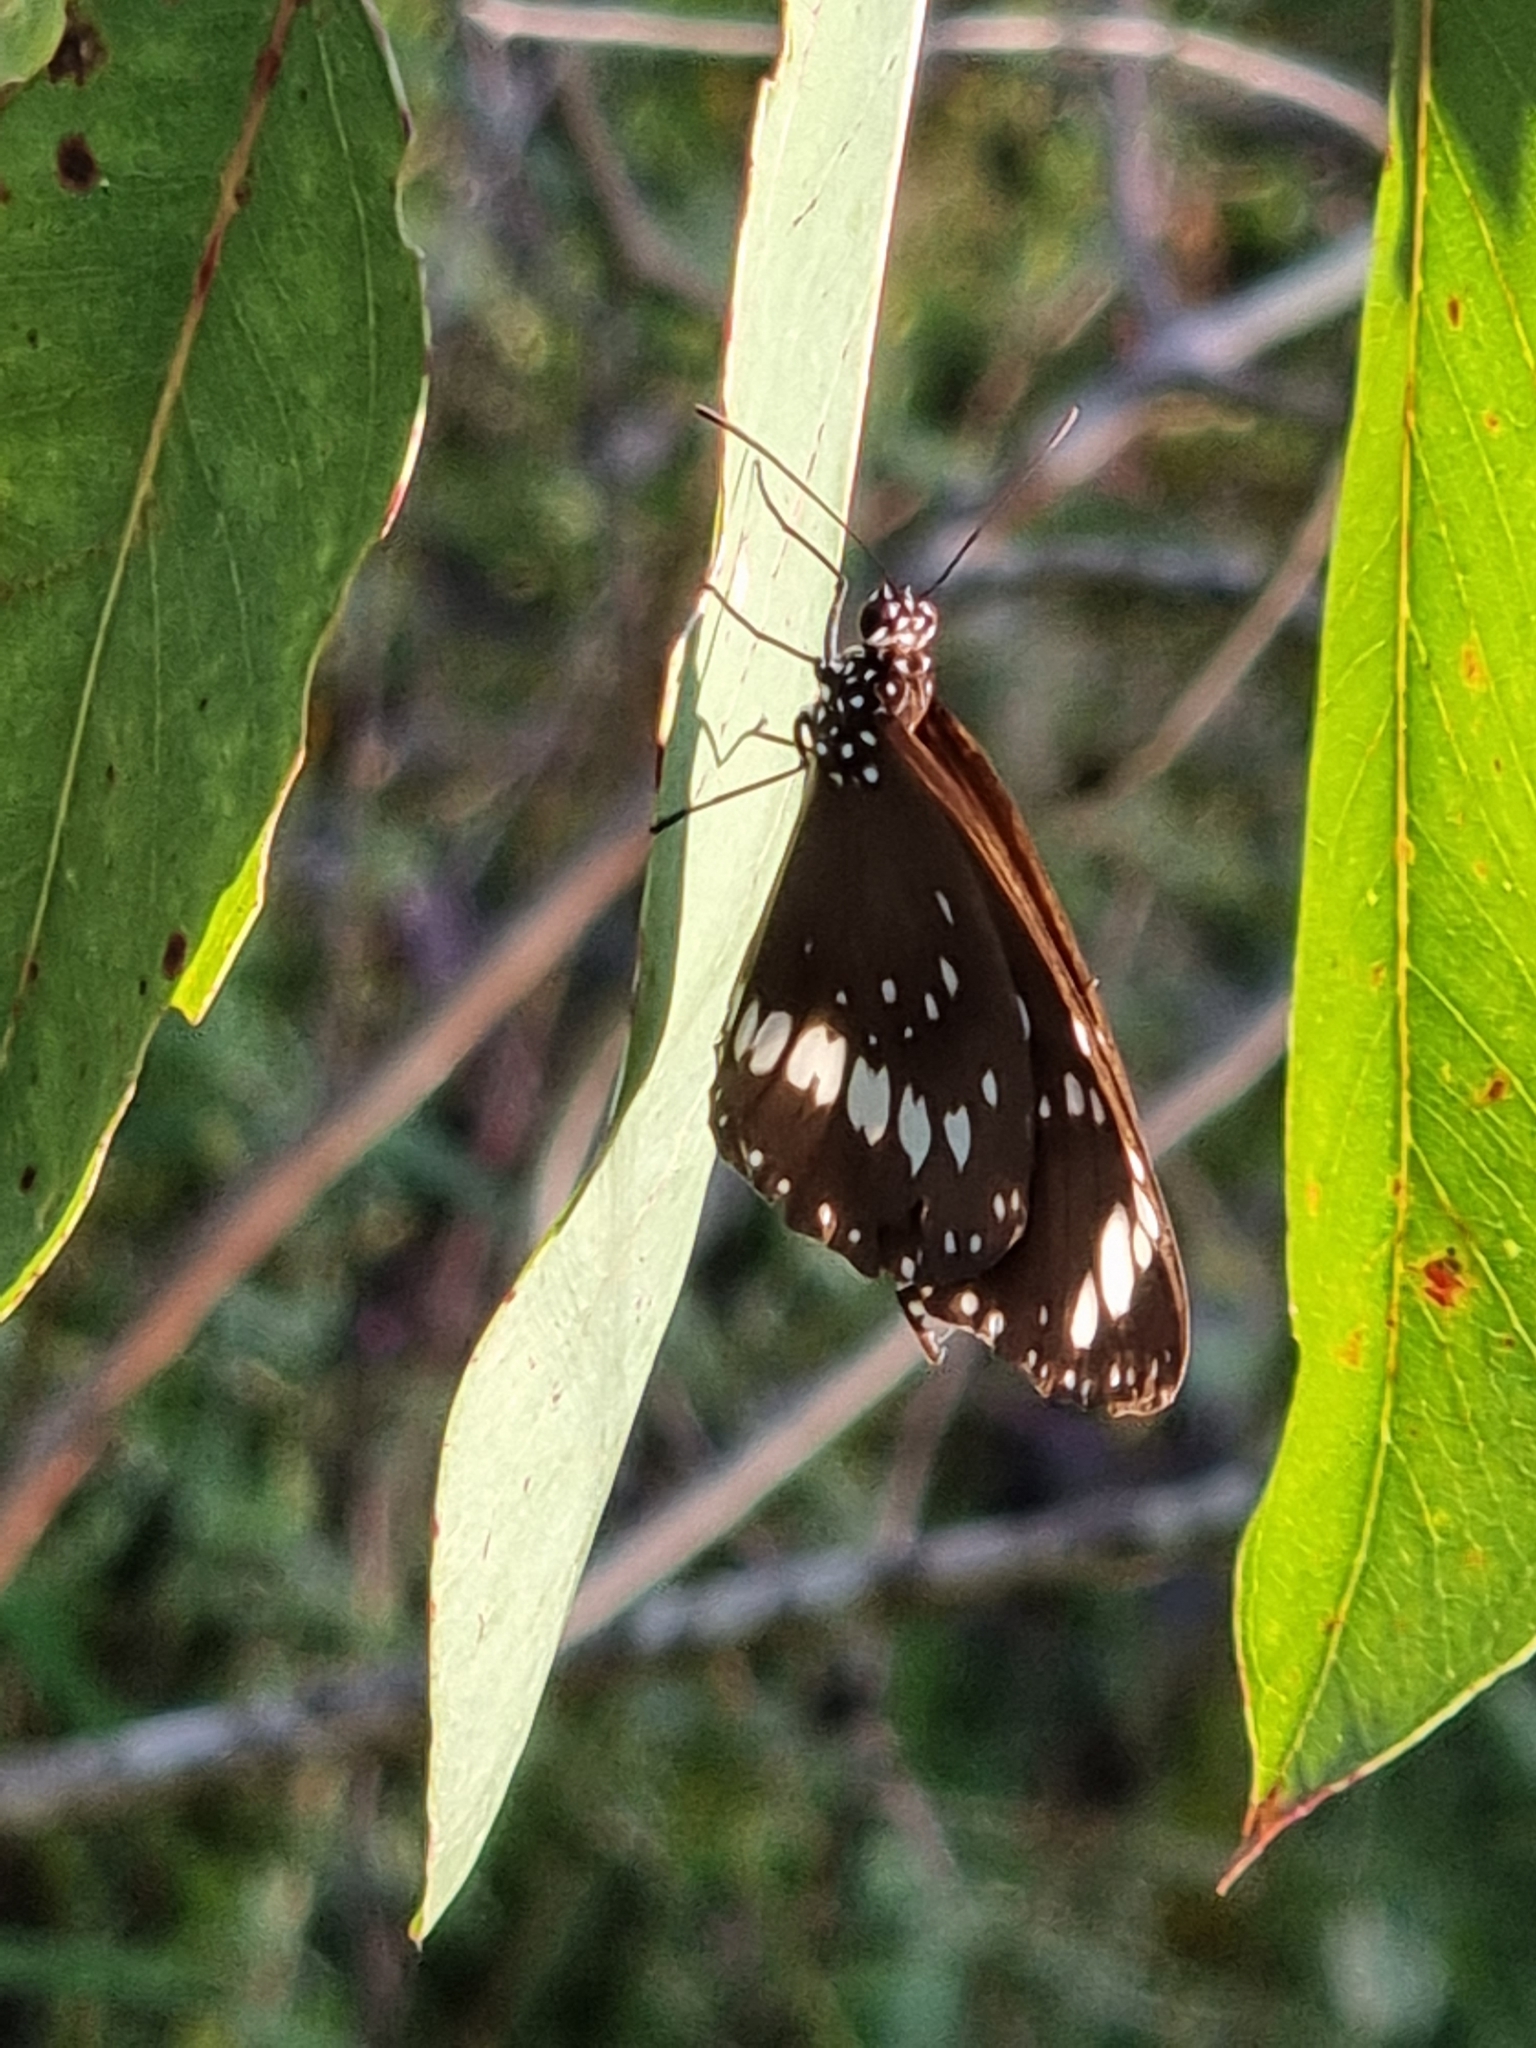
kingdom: Animalia
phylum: Arthropoda
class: Insecta
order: Lepidoptera
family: Nymphalidae
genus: Euploea
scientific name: Euploea core
